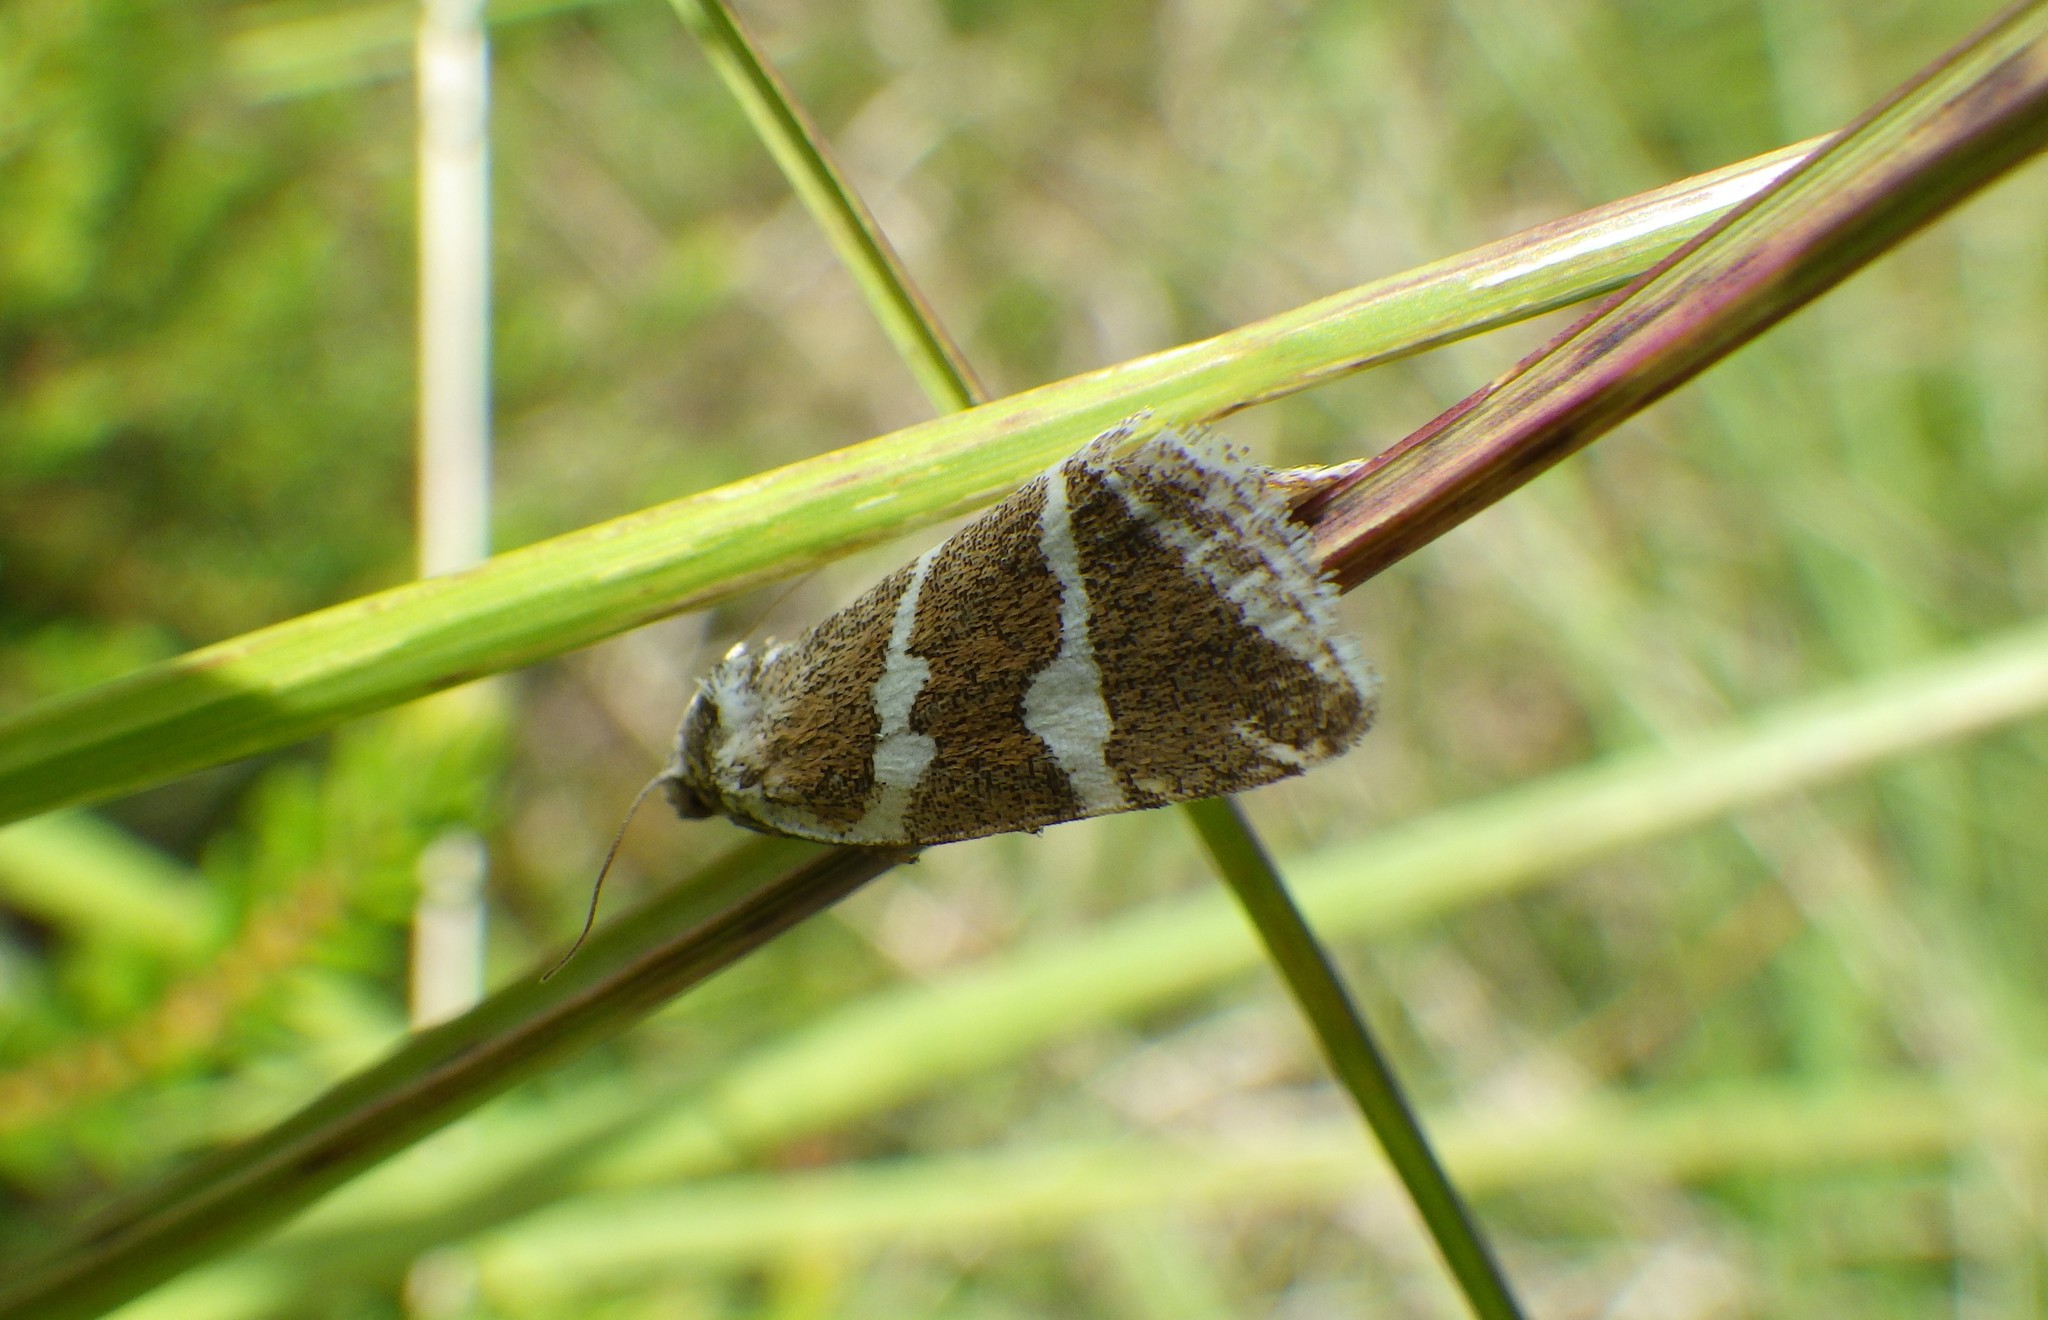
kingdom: Animalia
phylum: Arthropoda
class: Insecta
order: Lepidoptera
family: Noctuidae
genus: Deltote
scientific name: Deltote bankiana
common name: Silver barred
